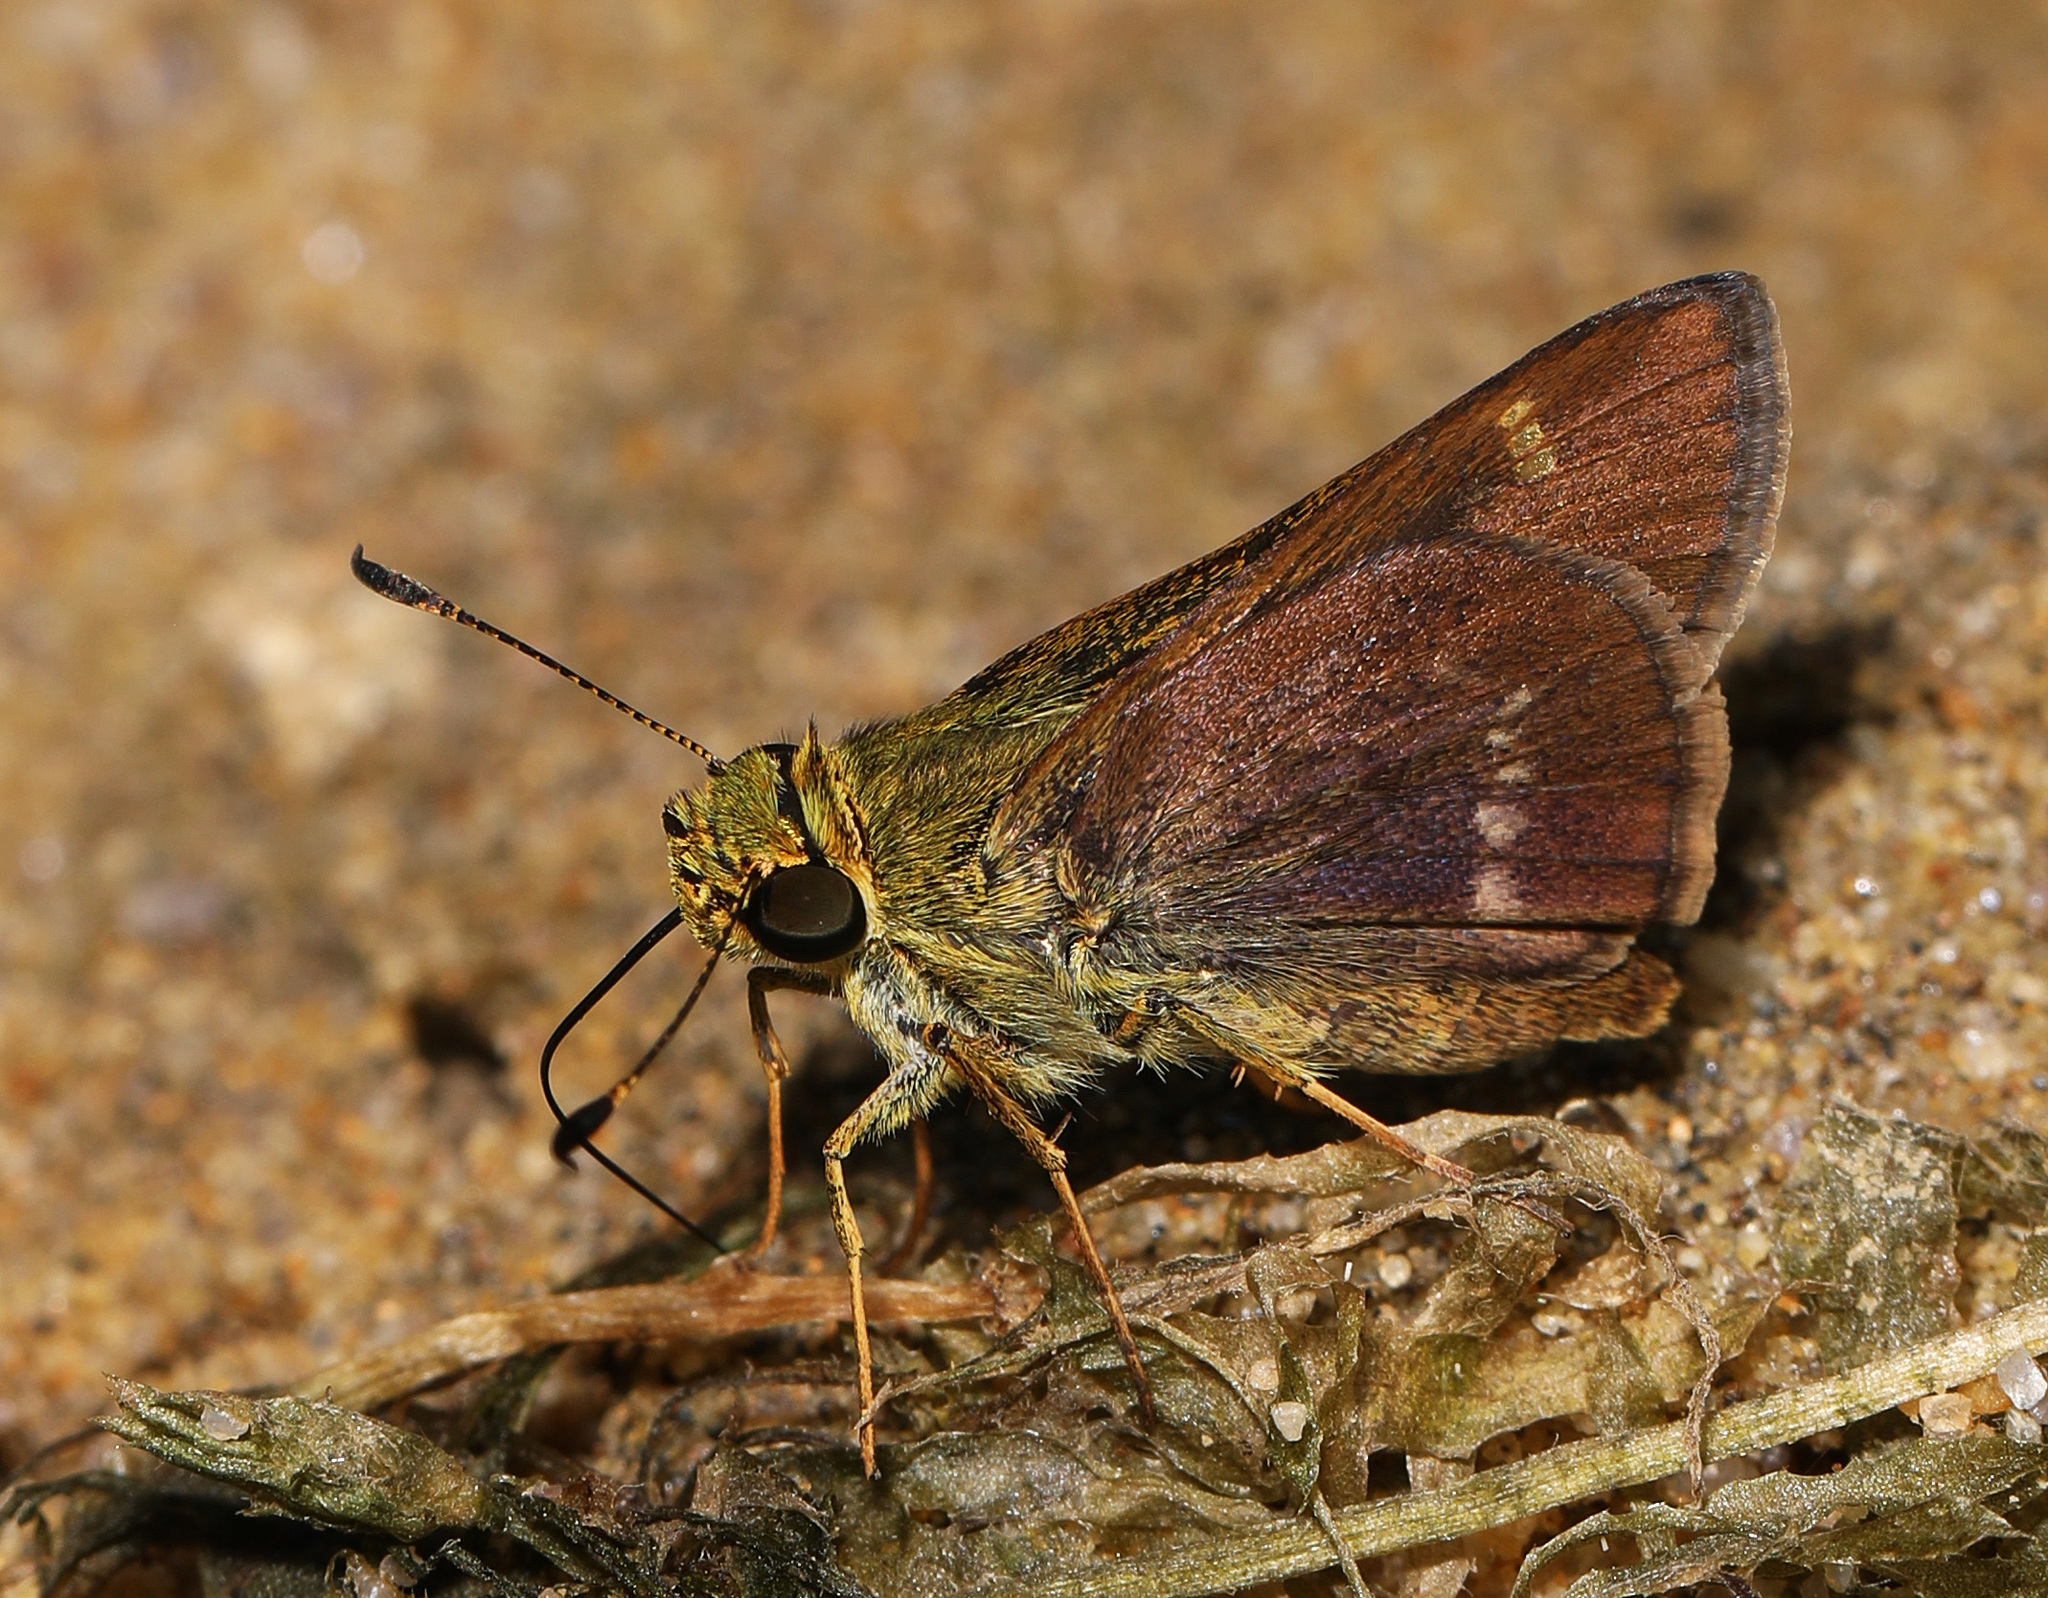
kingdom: Animalia
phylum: Arthropoda
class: Insecta
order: Lepidoptera
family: Hesperiidae
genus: Vernia
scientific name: Vernia verna
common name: Little glassywing
